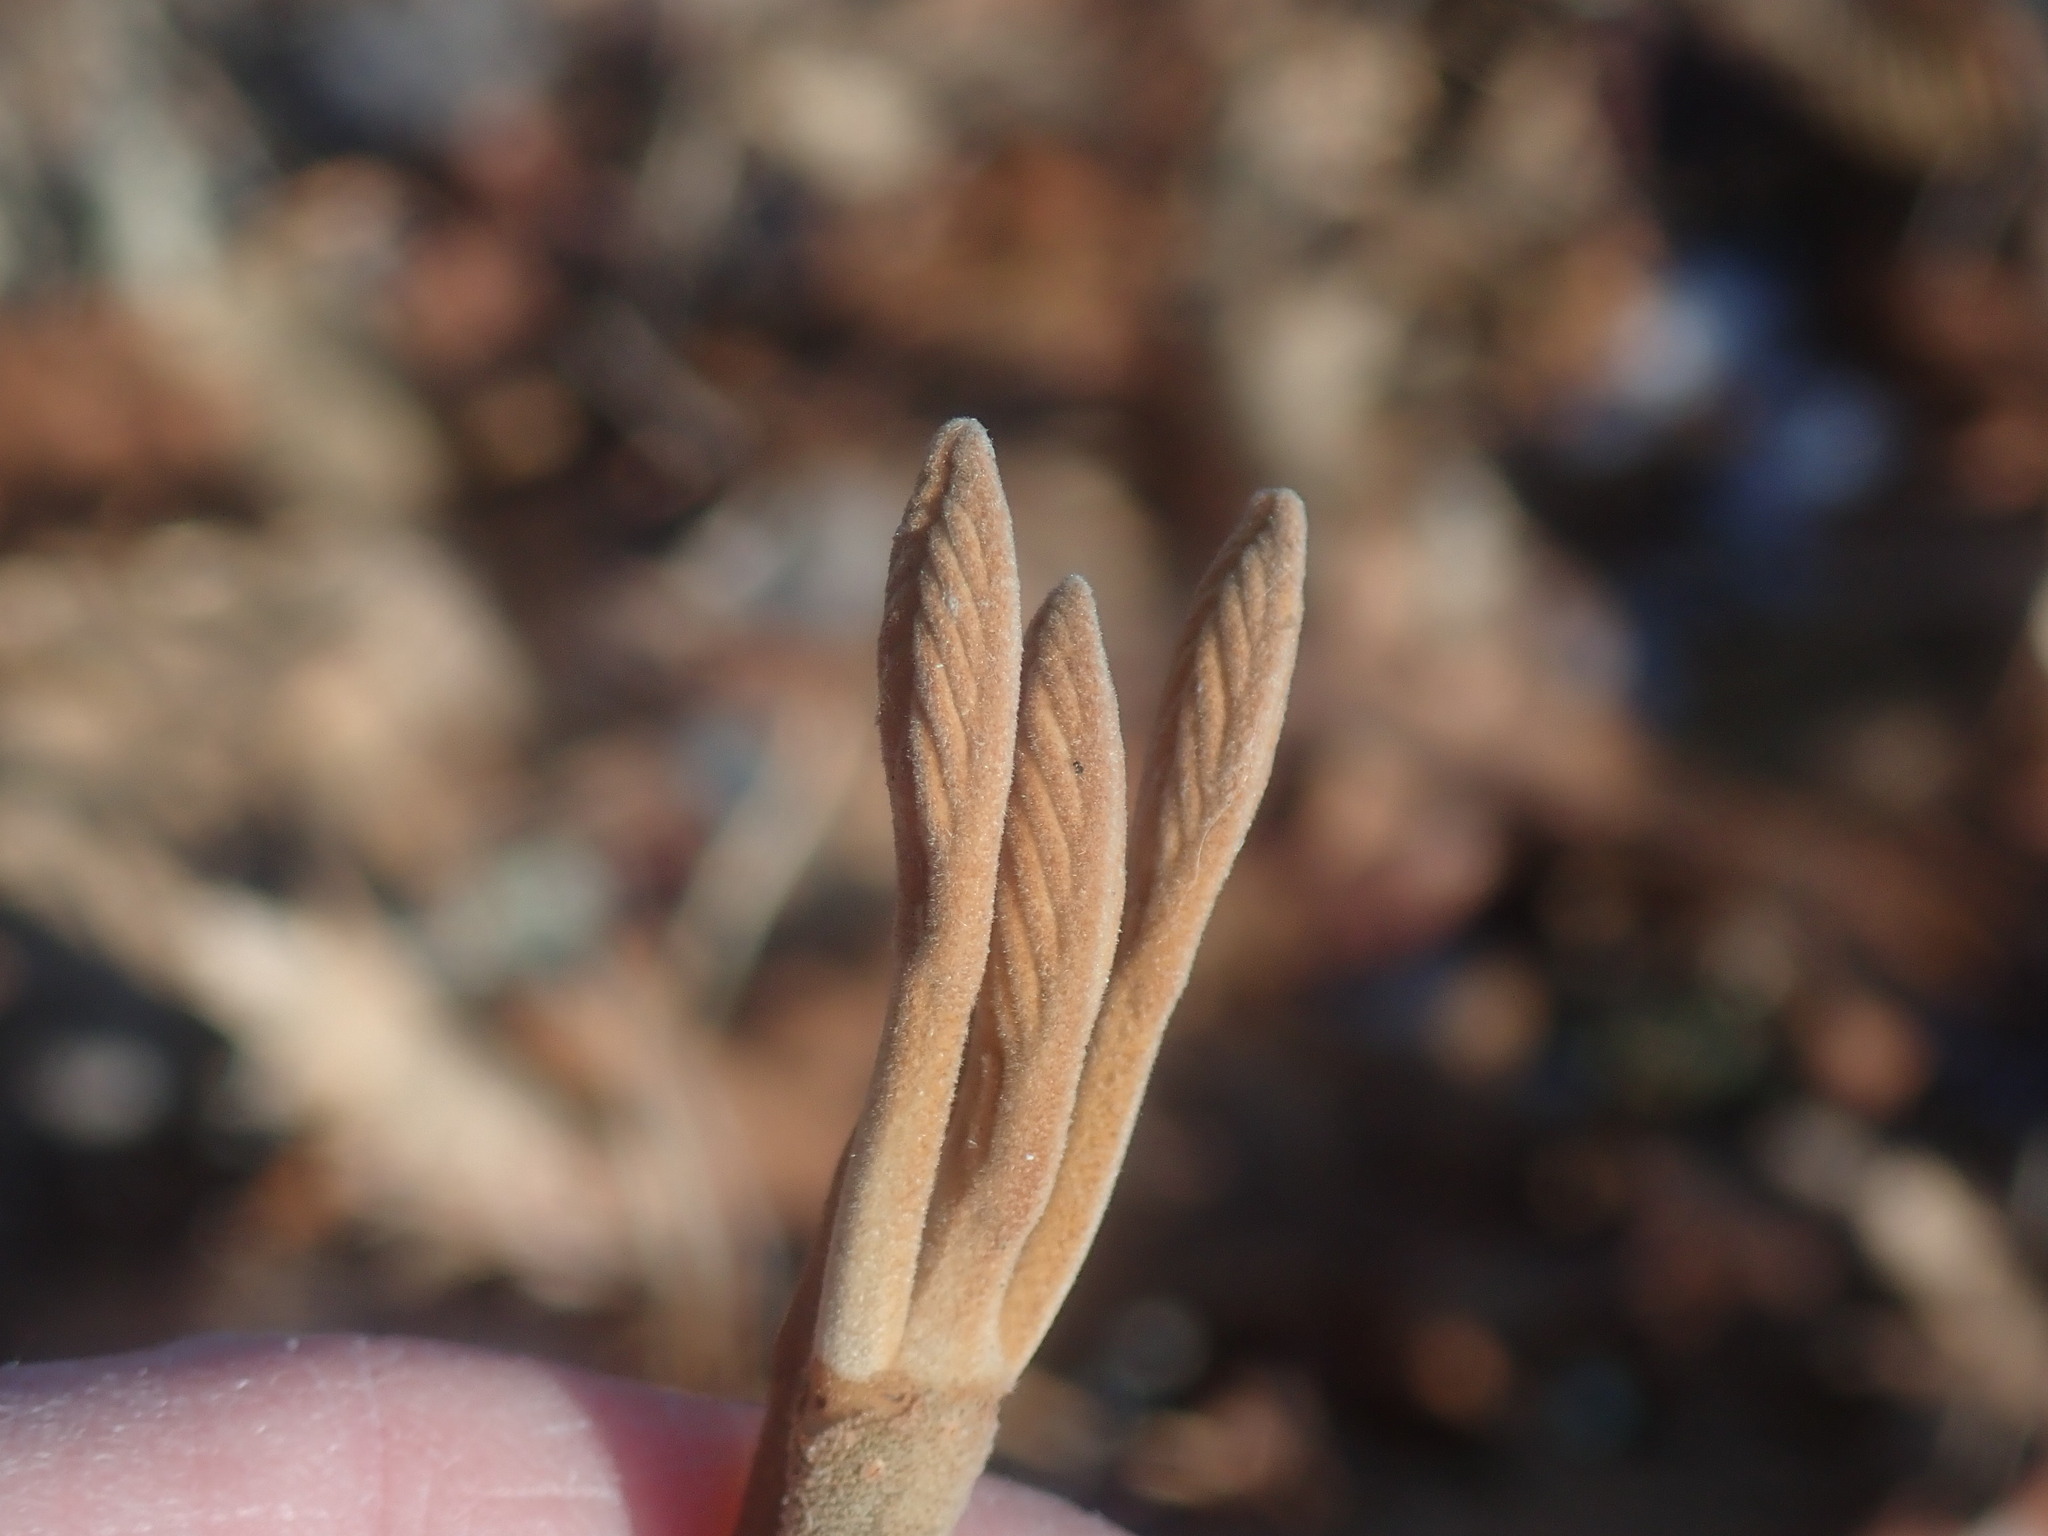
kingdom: Plantae
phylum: Tracheophyta
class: Magnoliopsida
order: Dipsacales
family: Viburnaceae
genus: Viburnum
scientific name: Viburnum lantanoides
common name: Hobblebush
